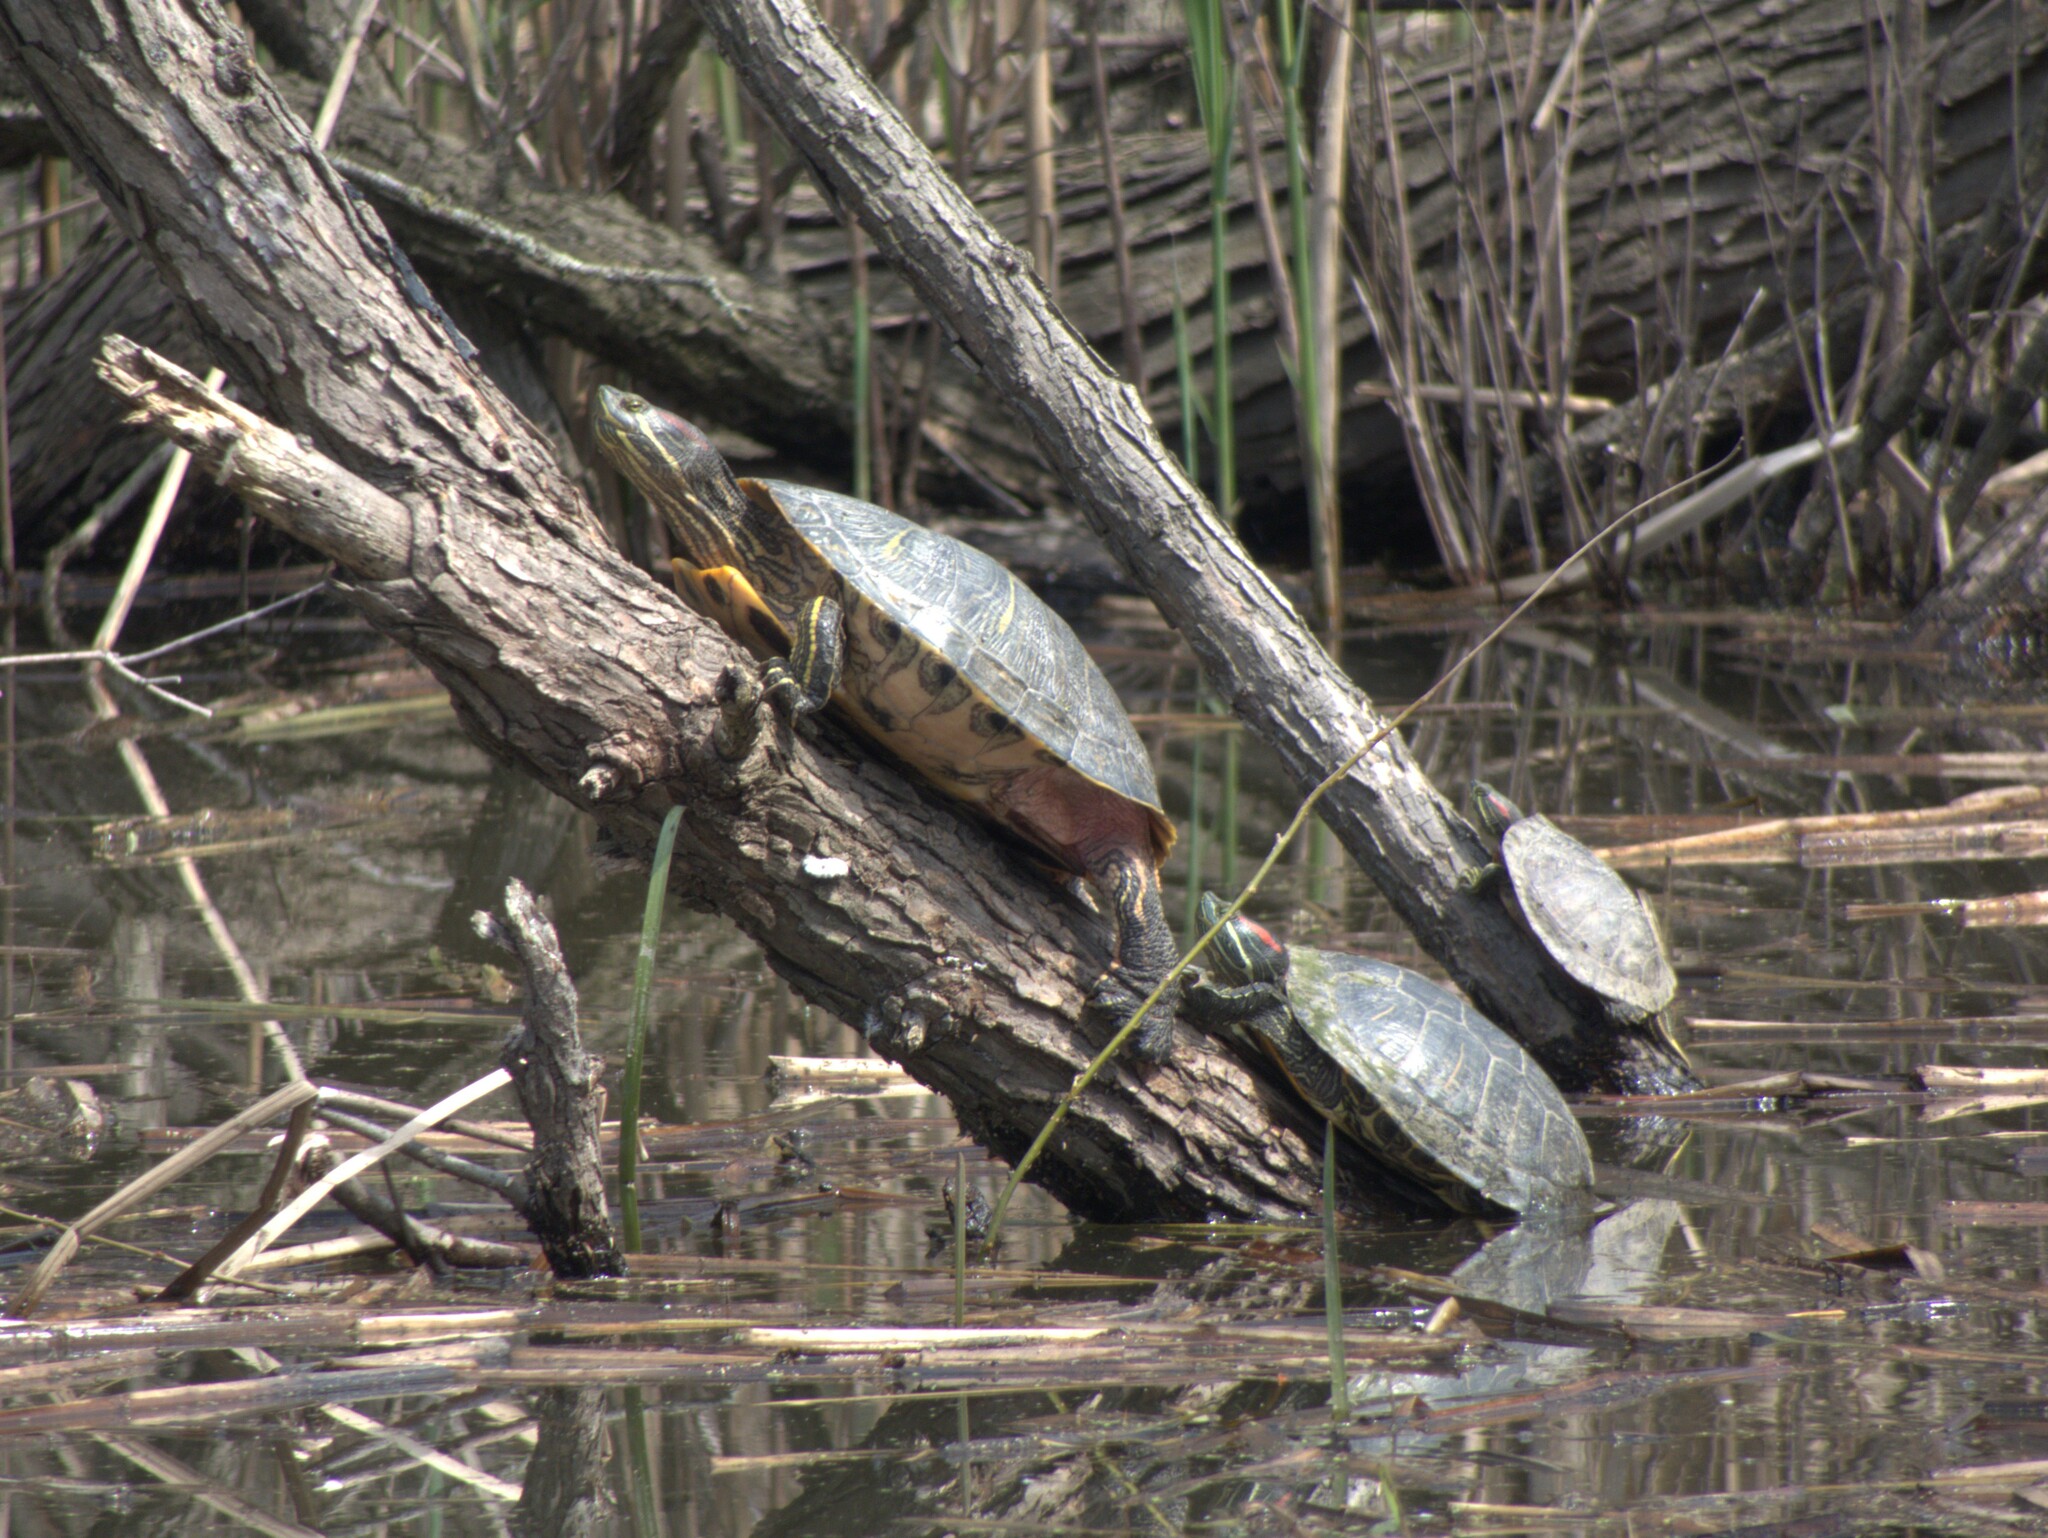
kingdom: Animalia
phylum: Chordata
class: Testudines
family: Emydidae
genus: Trachemys
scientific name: Trachemys scripta
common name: Slider
